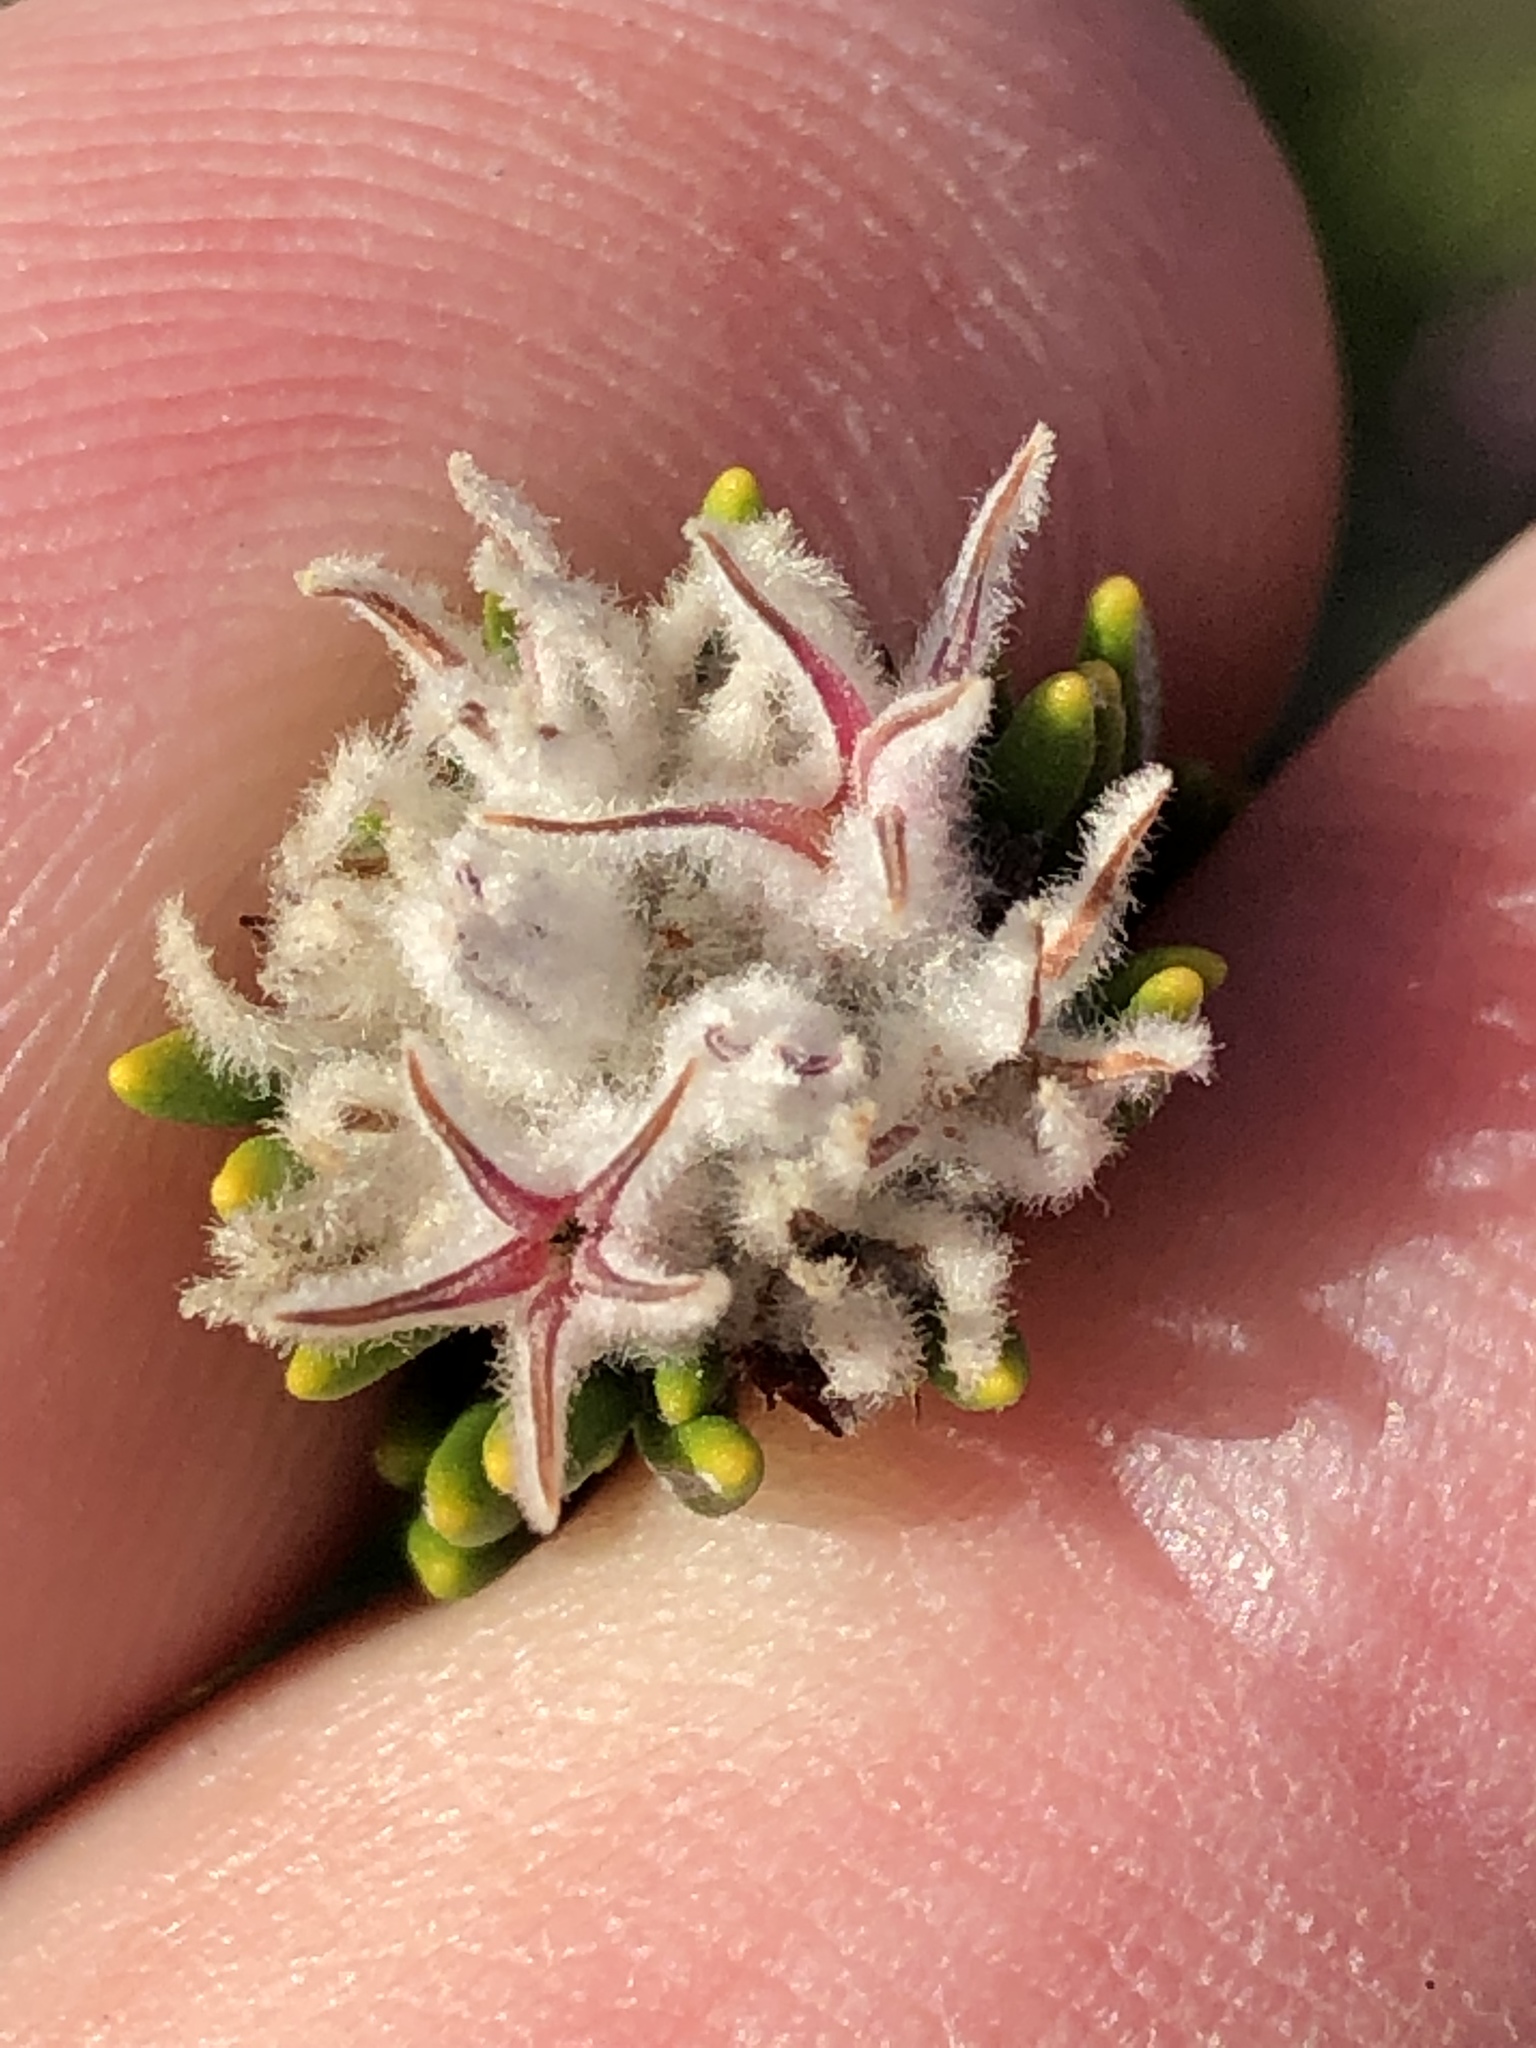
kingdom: Plantae
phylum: Tracheophyta
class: Magnoliopsida
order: Rosales
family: Rhamnaceae
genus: Trichocephalus
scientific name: Trichocephalus stipularis
